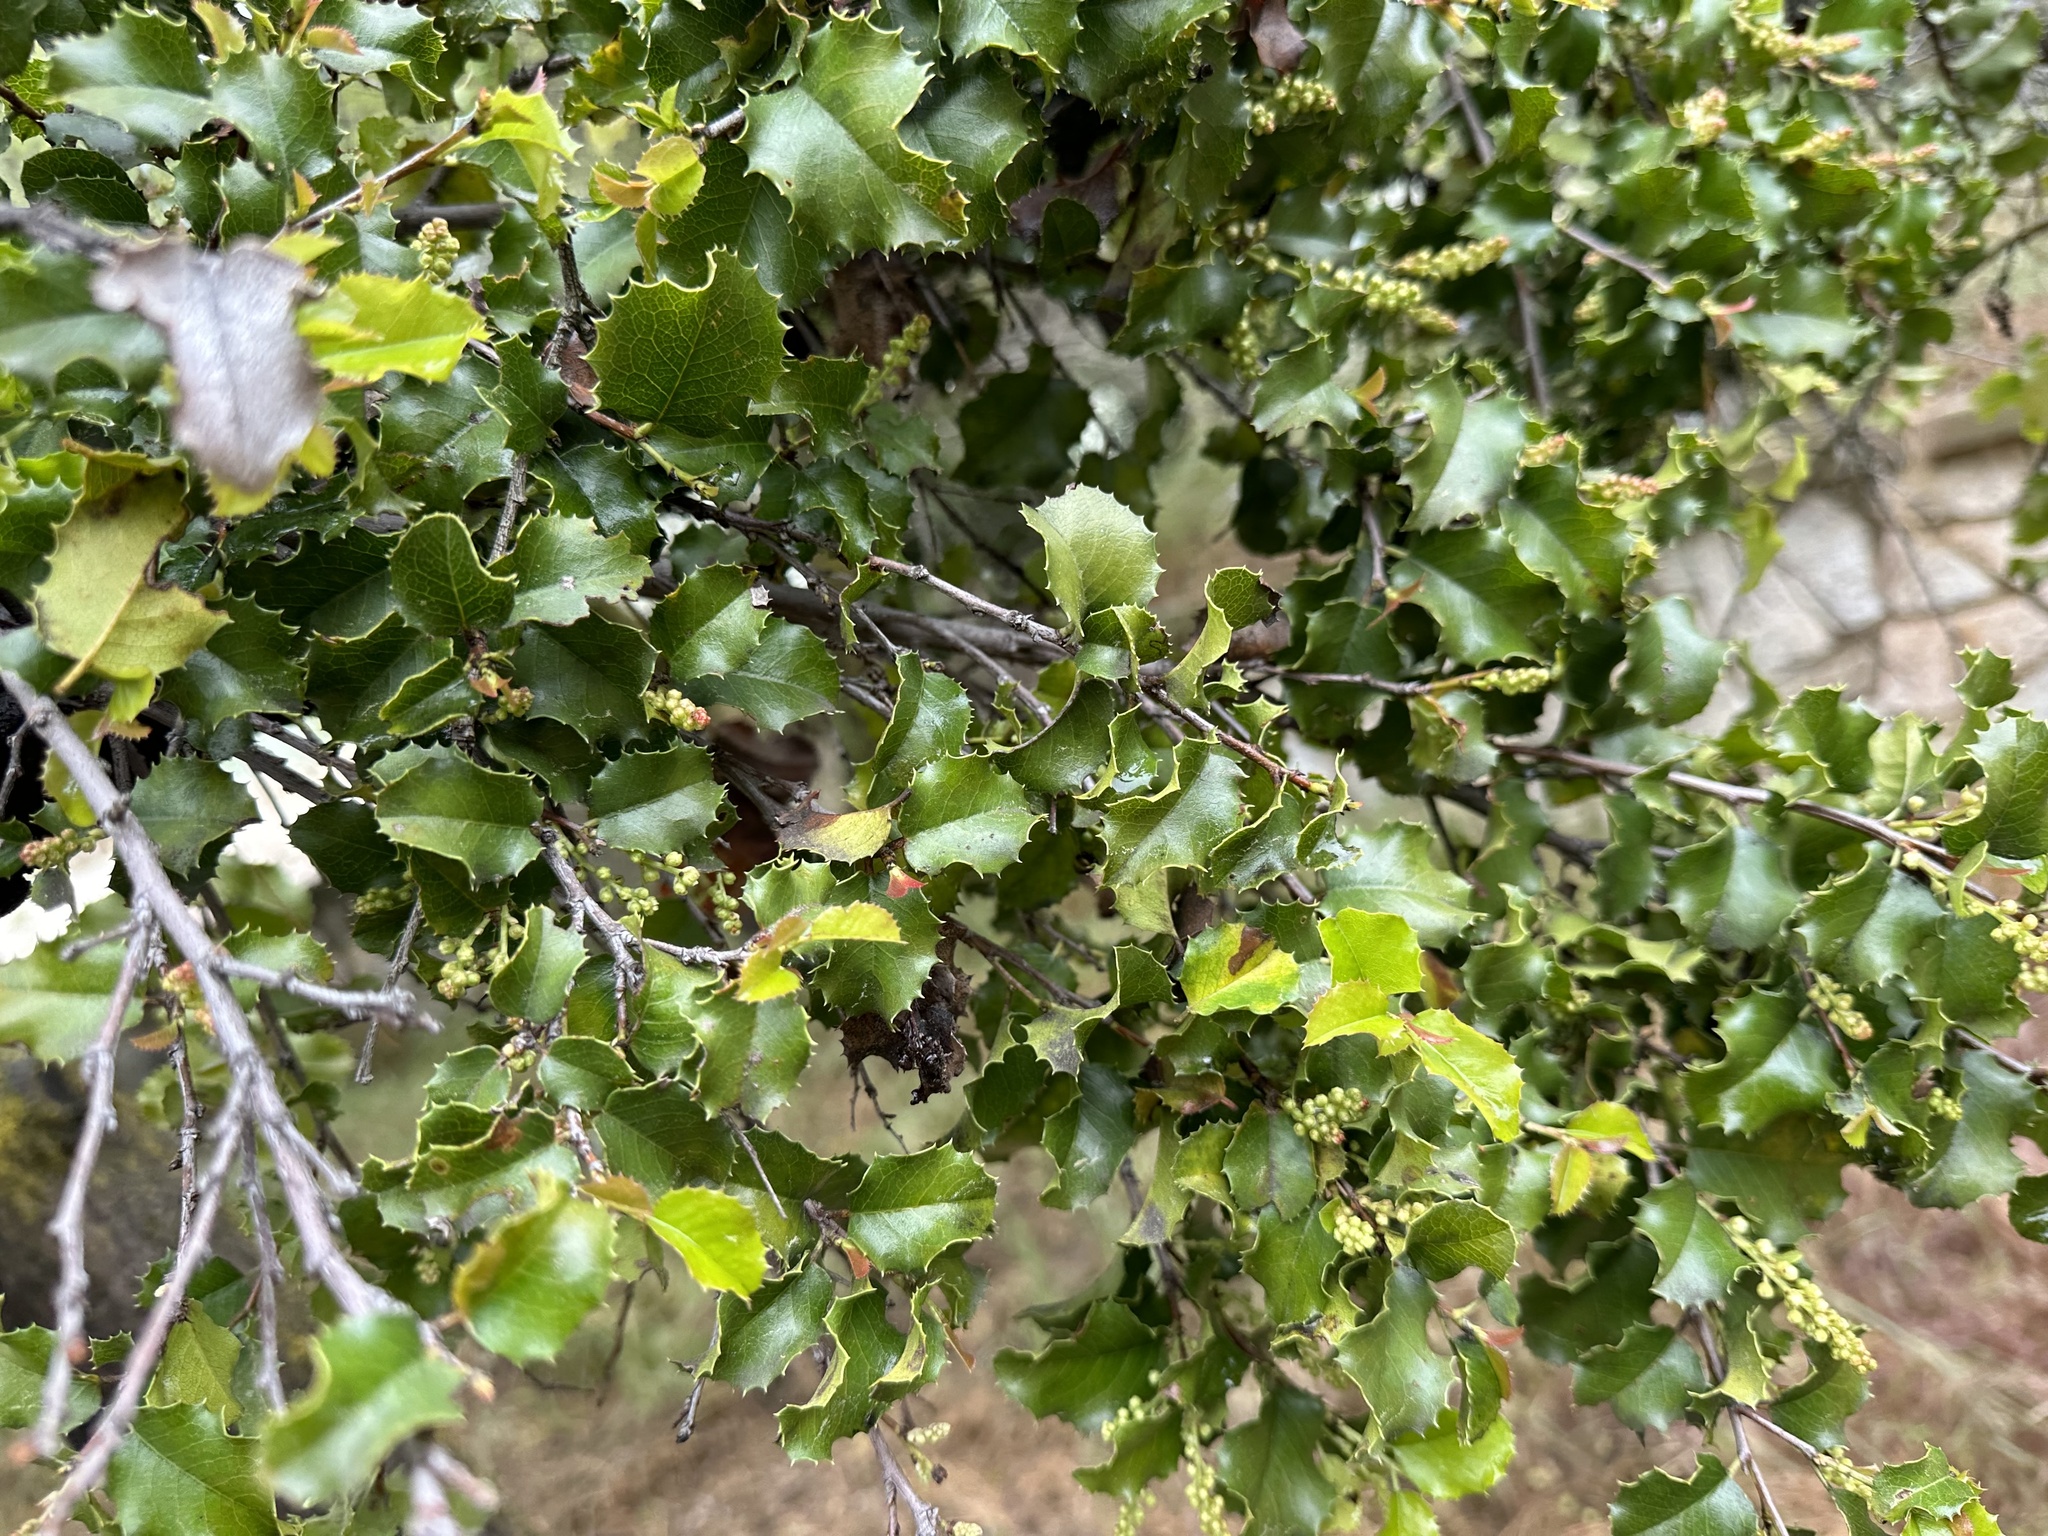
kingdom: Plantae
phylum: Tracheophyta
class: Magnoliopsida
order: Rosales
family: Rosaceae
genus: Prunus
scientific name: Prunus ilicifolia
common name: Hollyleaf cherry
